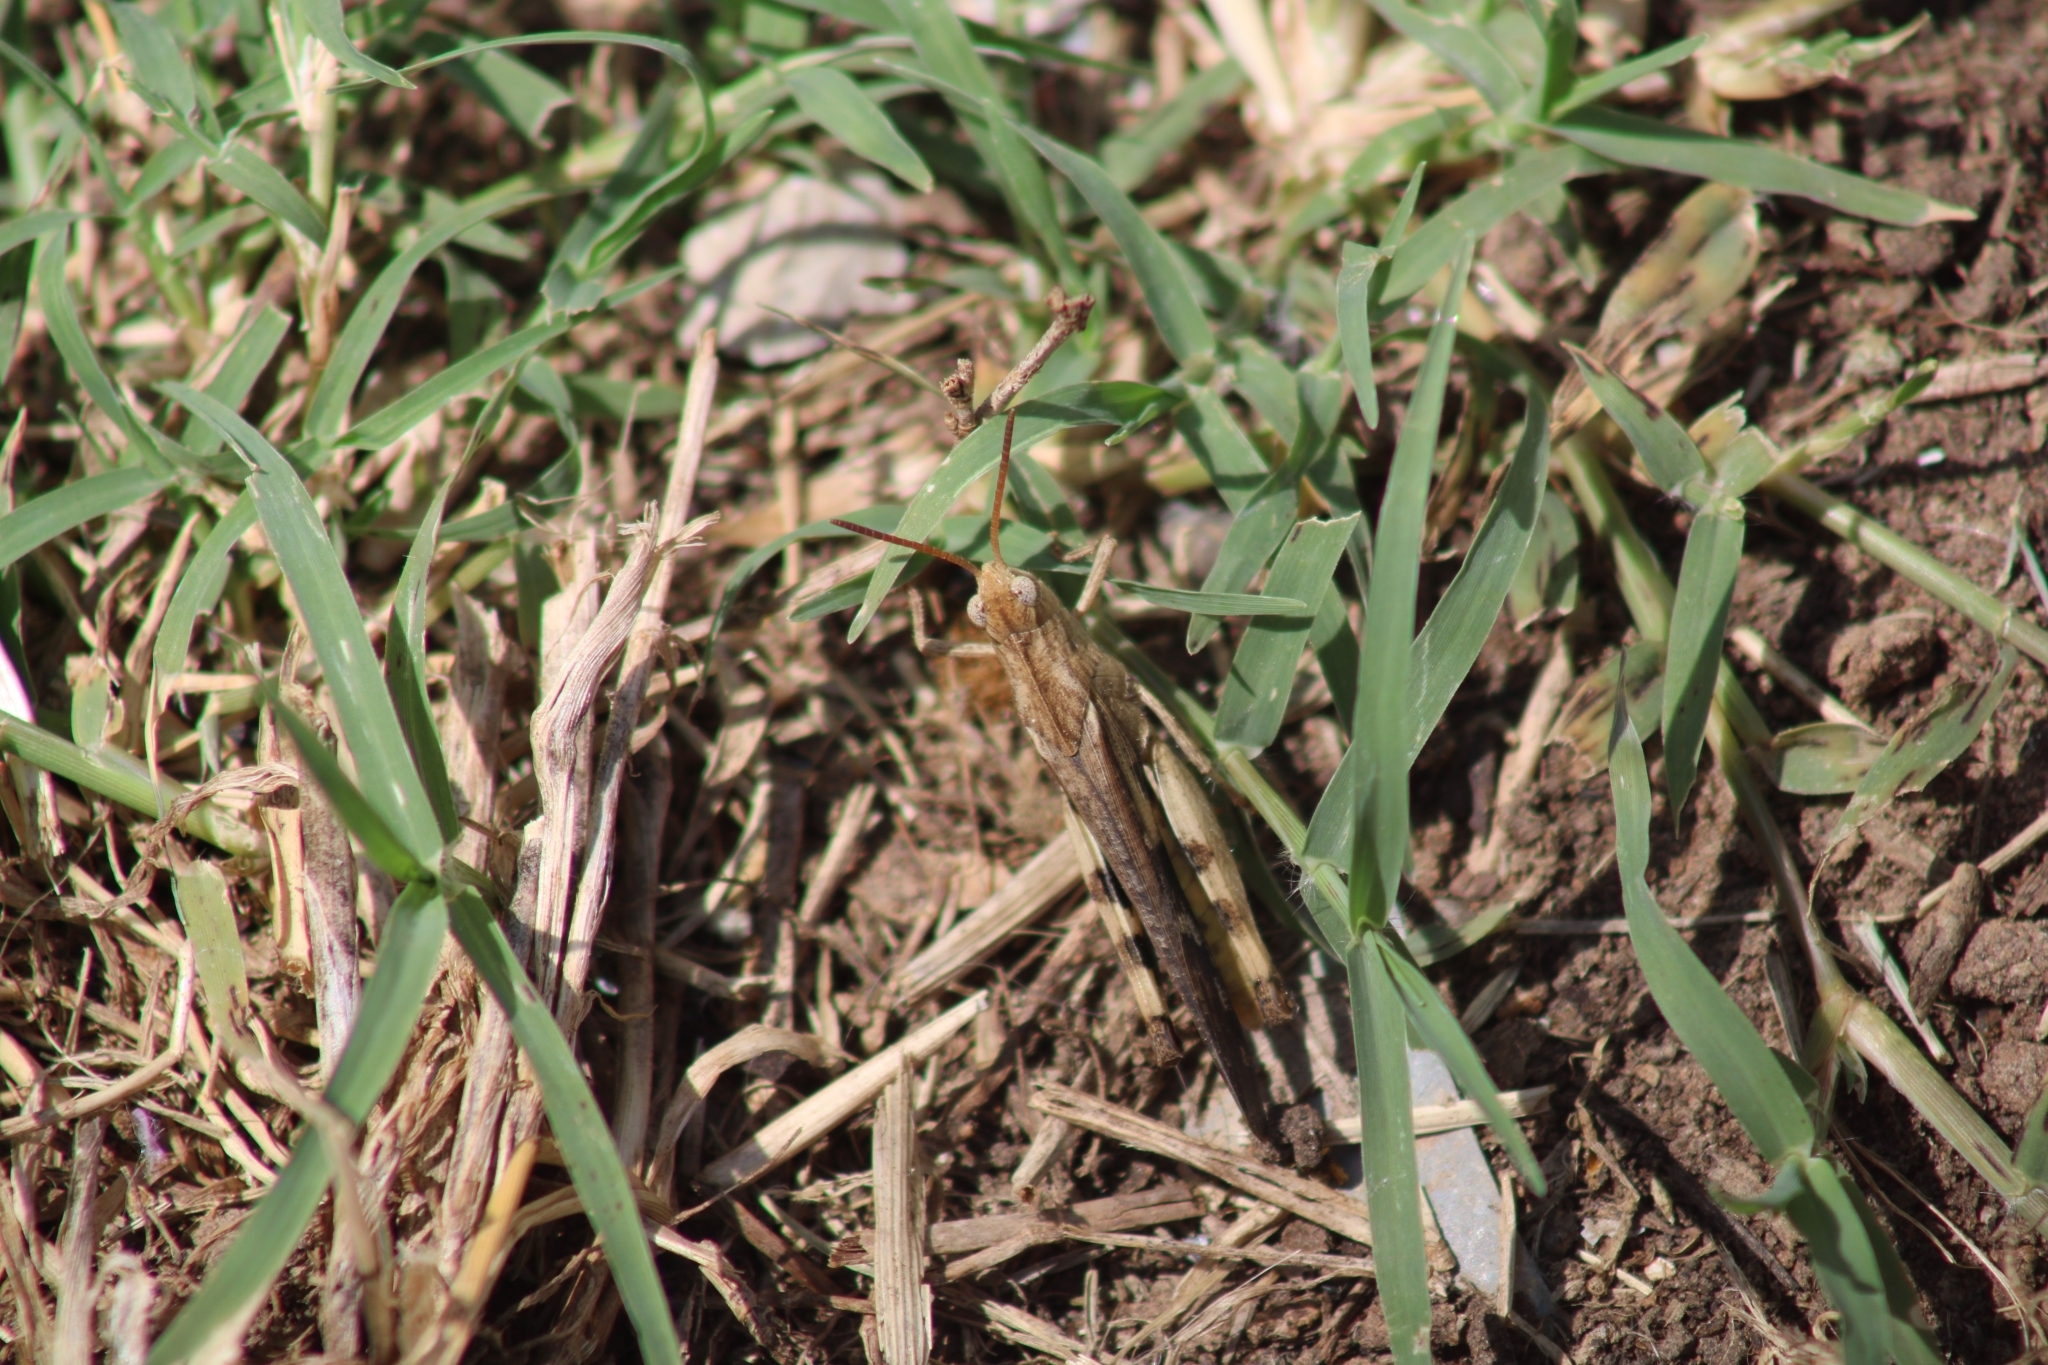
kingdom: Animalia
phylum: Arthropoda
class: Insecta
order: Orthoptera
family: Acrididae
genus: Chortophaga
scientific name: Chortophaga viridifasciata
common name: Green-striped grasshopper
